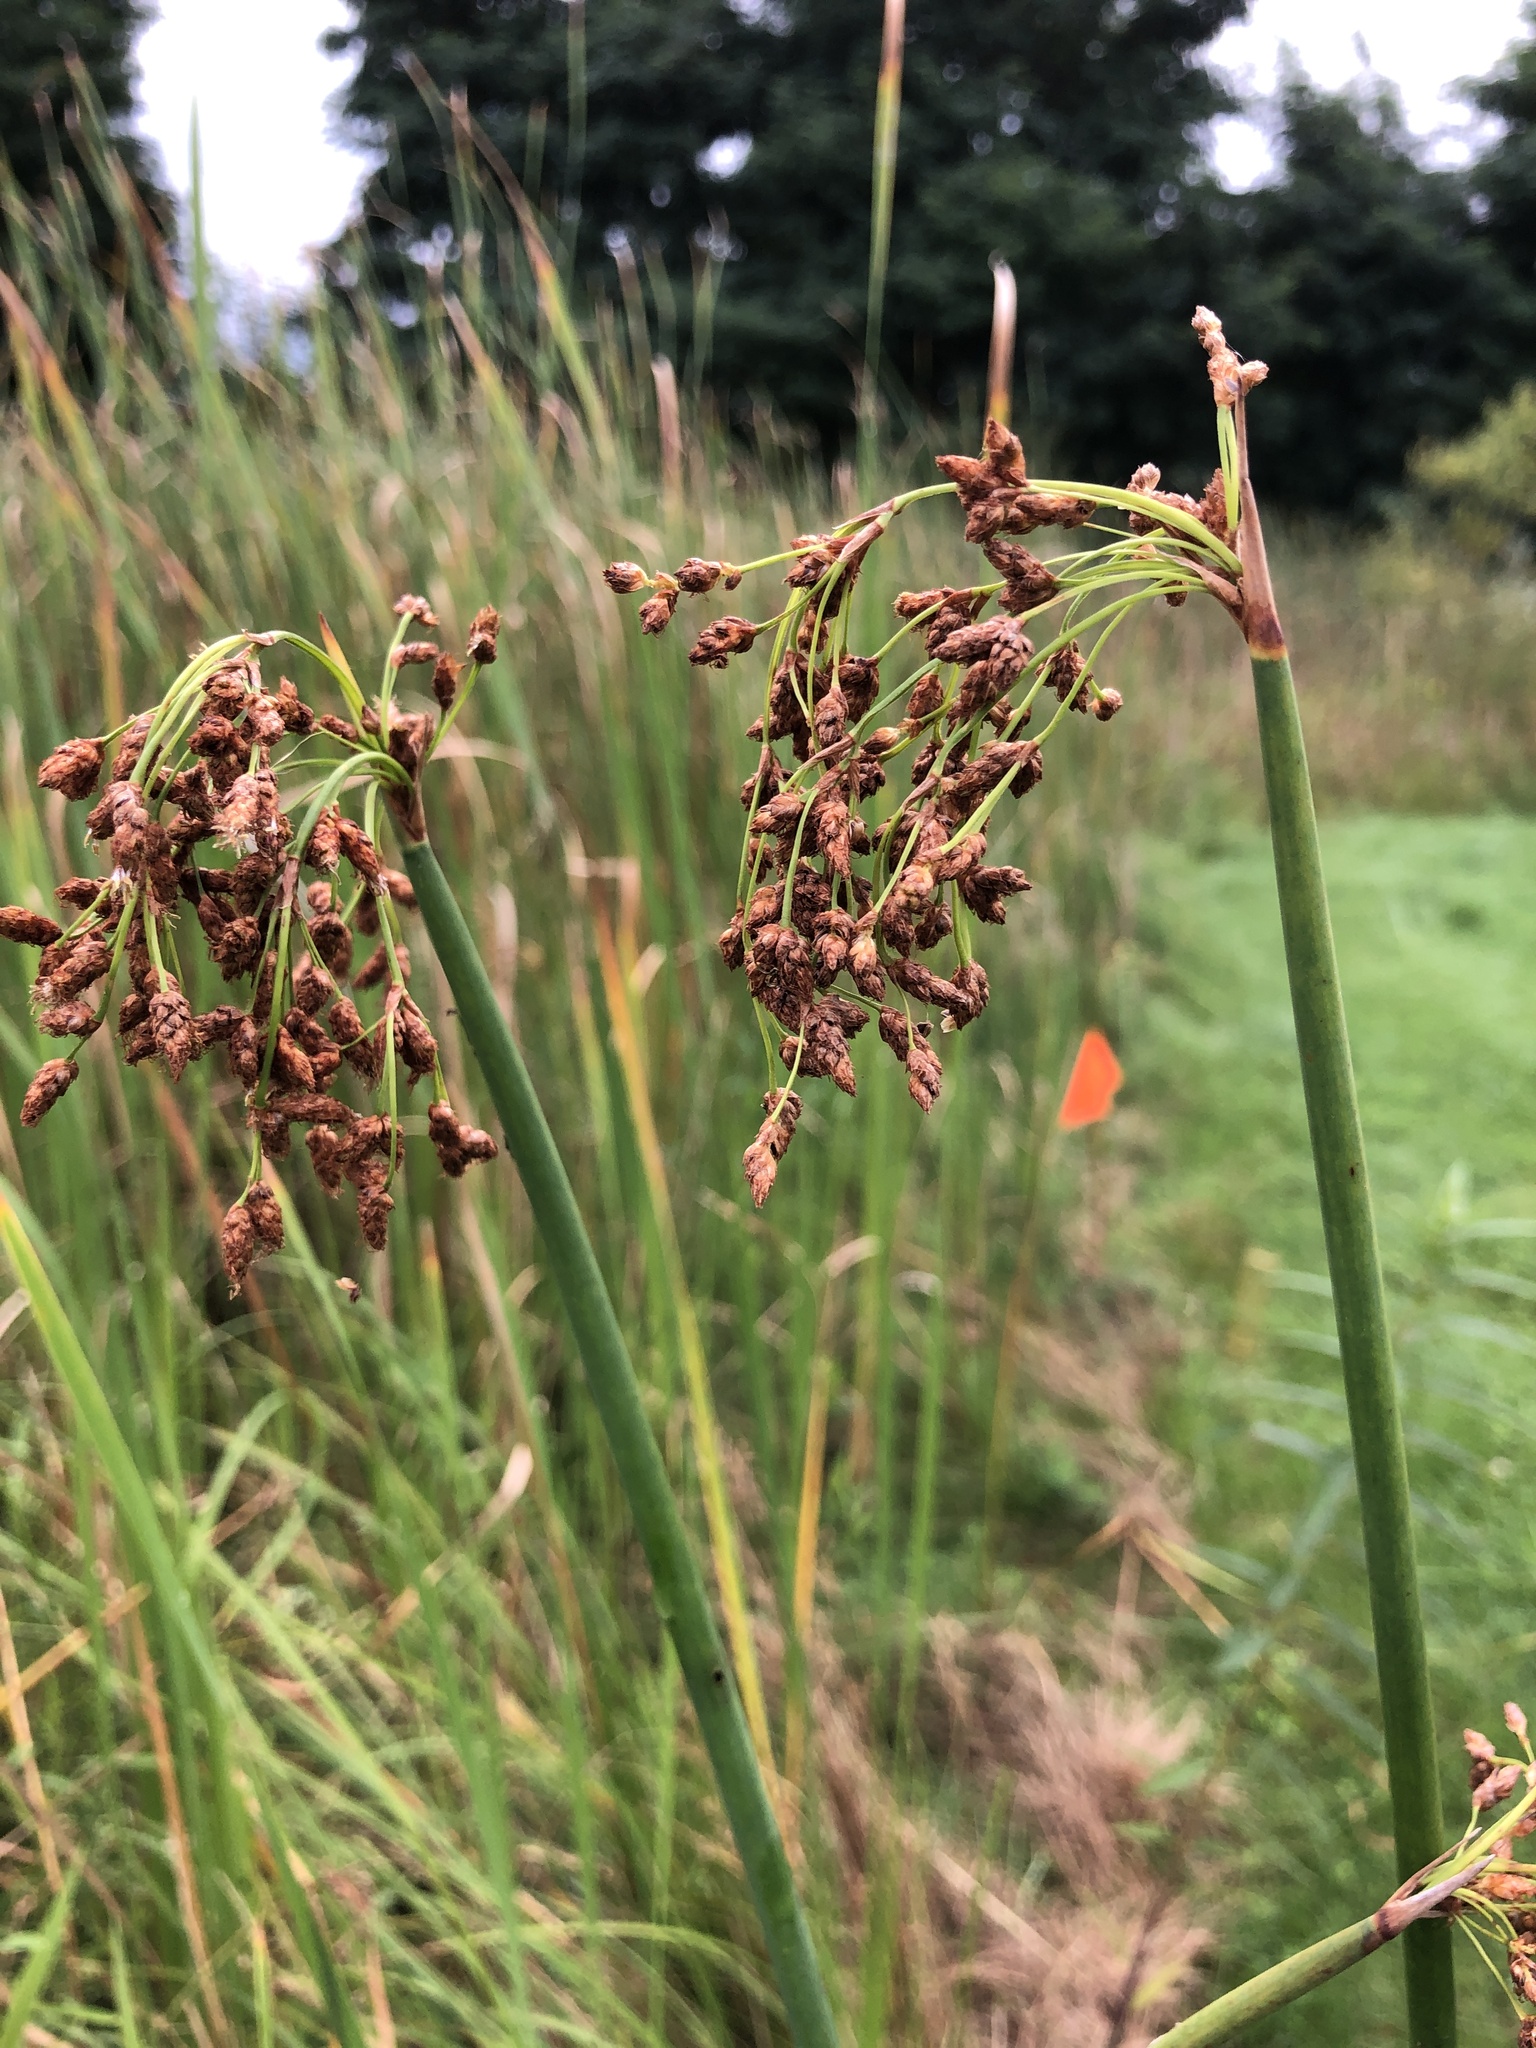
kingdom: Plantae
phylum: Tracheophyta
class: Liliopsida
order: Poales
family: Cyperaceae
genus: Schoenoplectus
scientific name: Schoenoplectus tabernaemontani
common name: Grey club-rush
